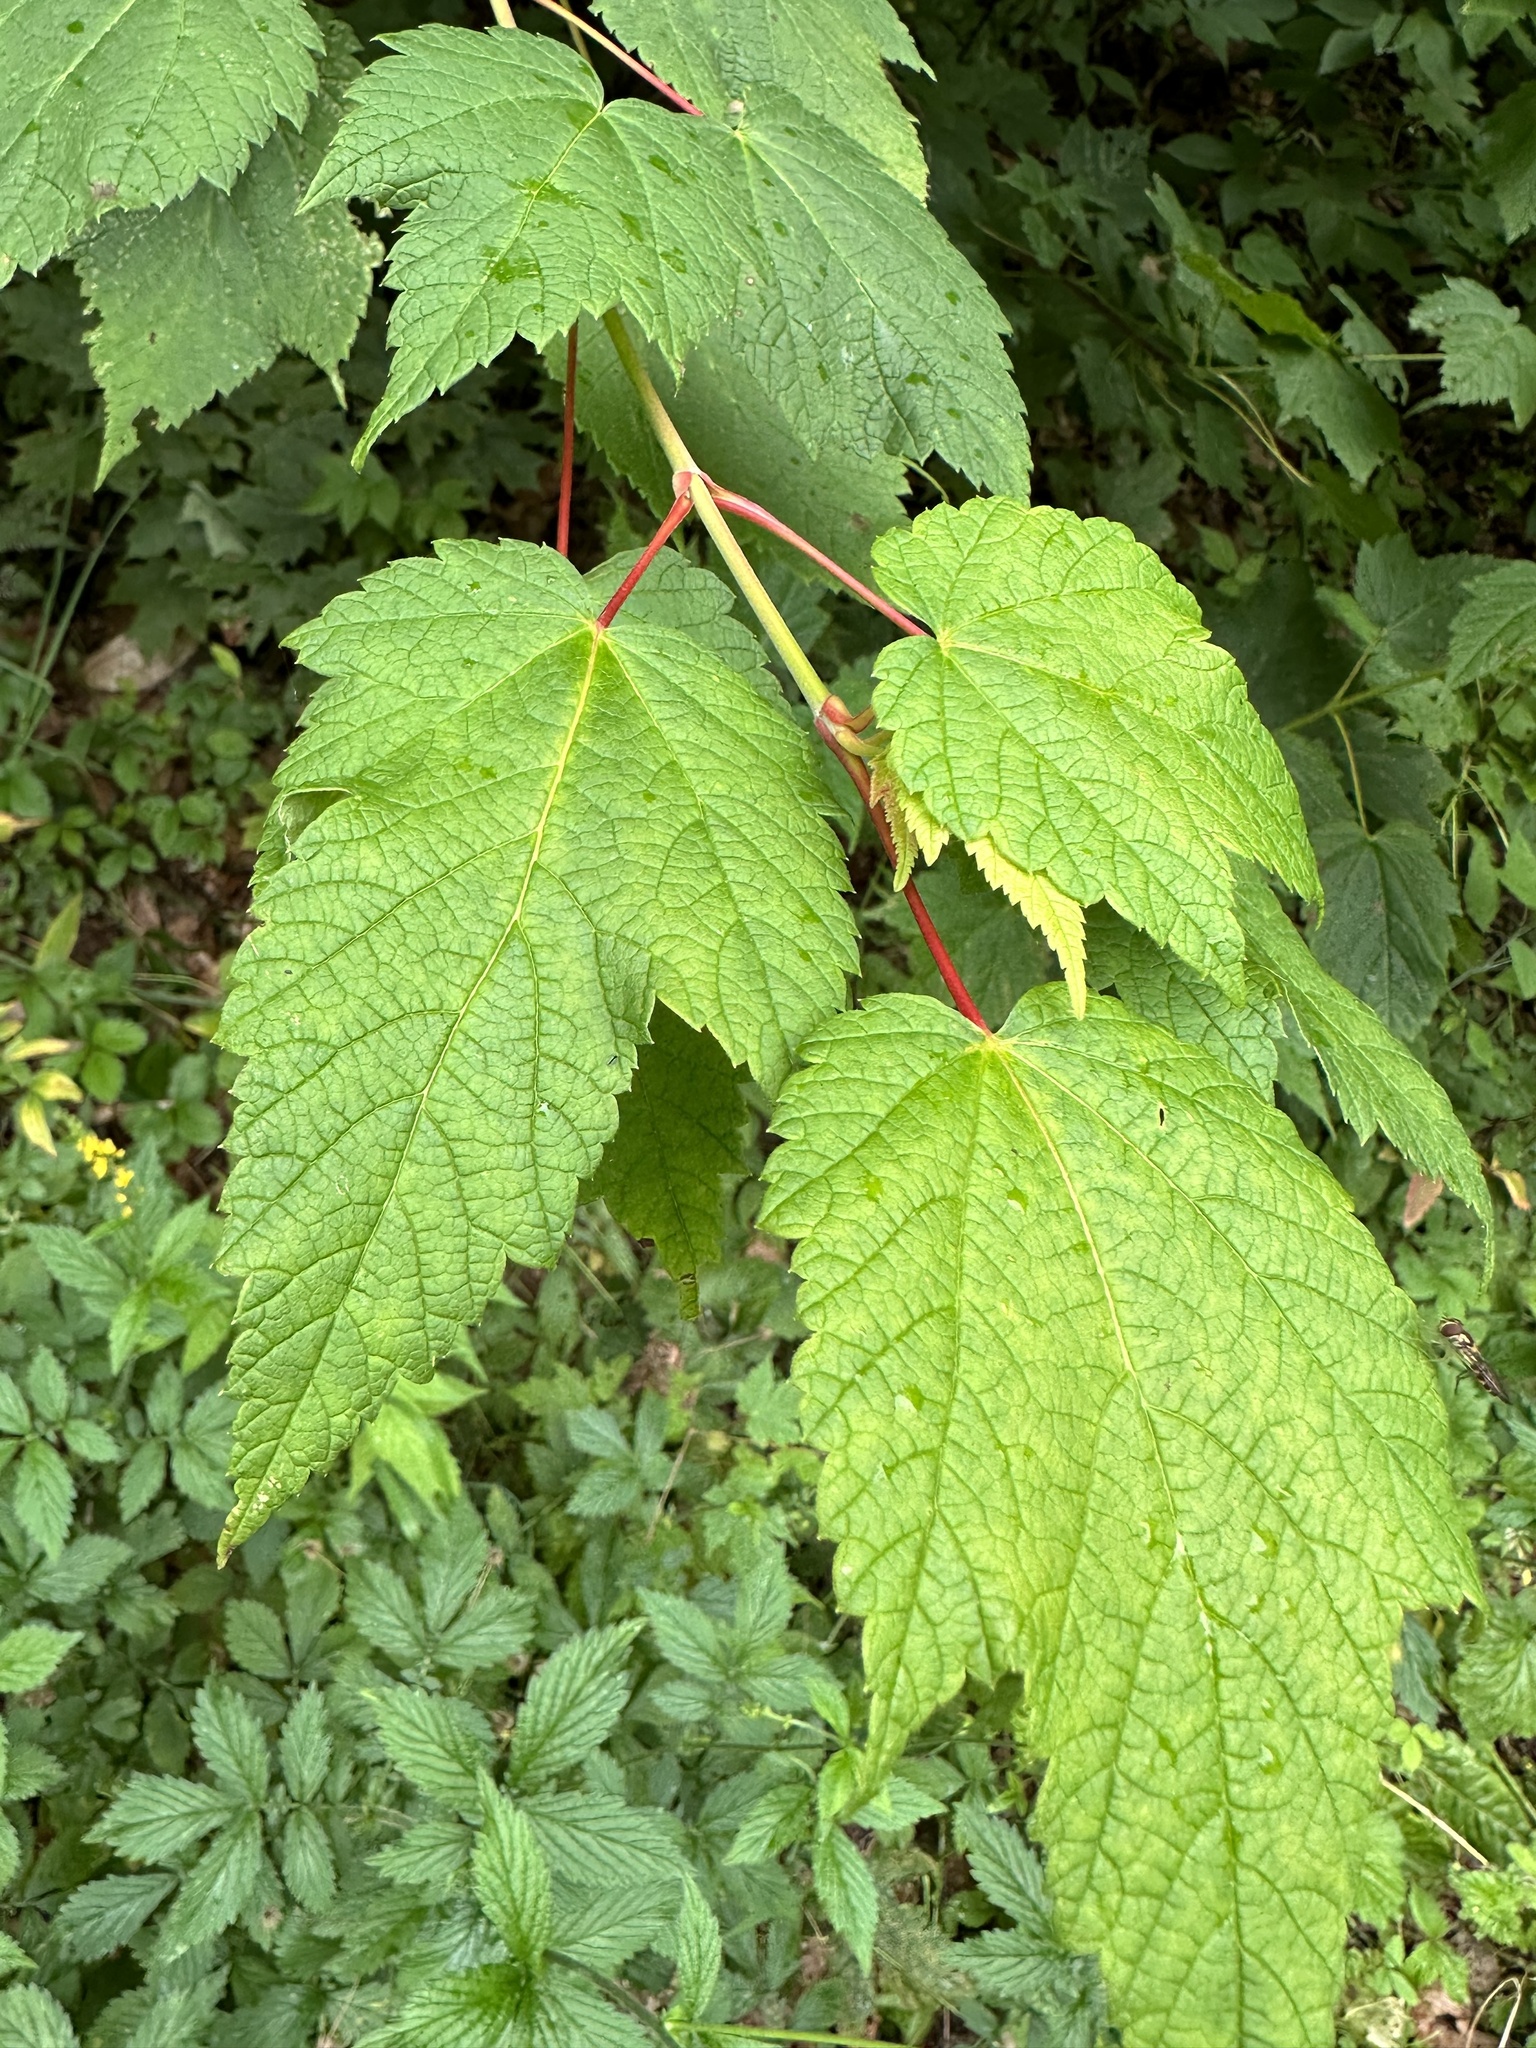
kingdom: Plantae
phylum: Tracheophyta
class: Magnoliopsida
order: Sapindales
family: Sapindaceae
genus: Acer
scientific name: Acer spicatum
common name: Mountain maple
